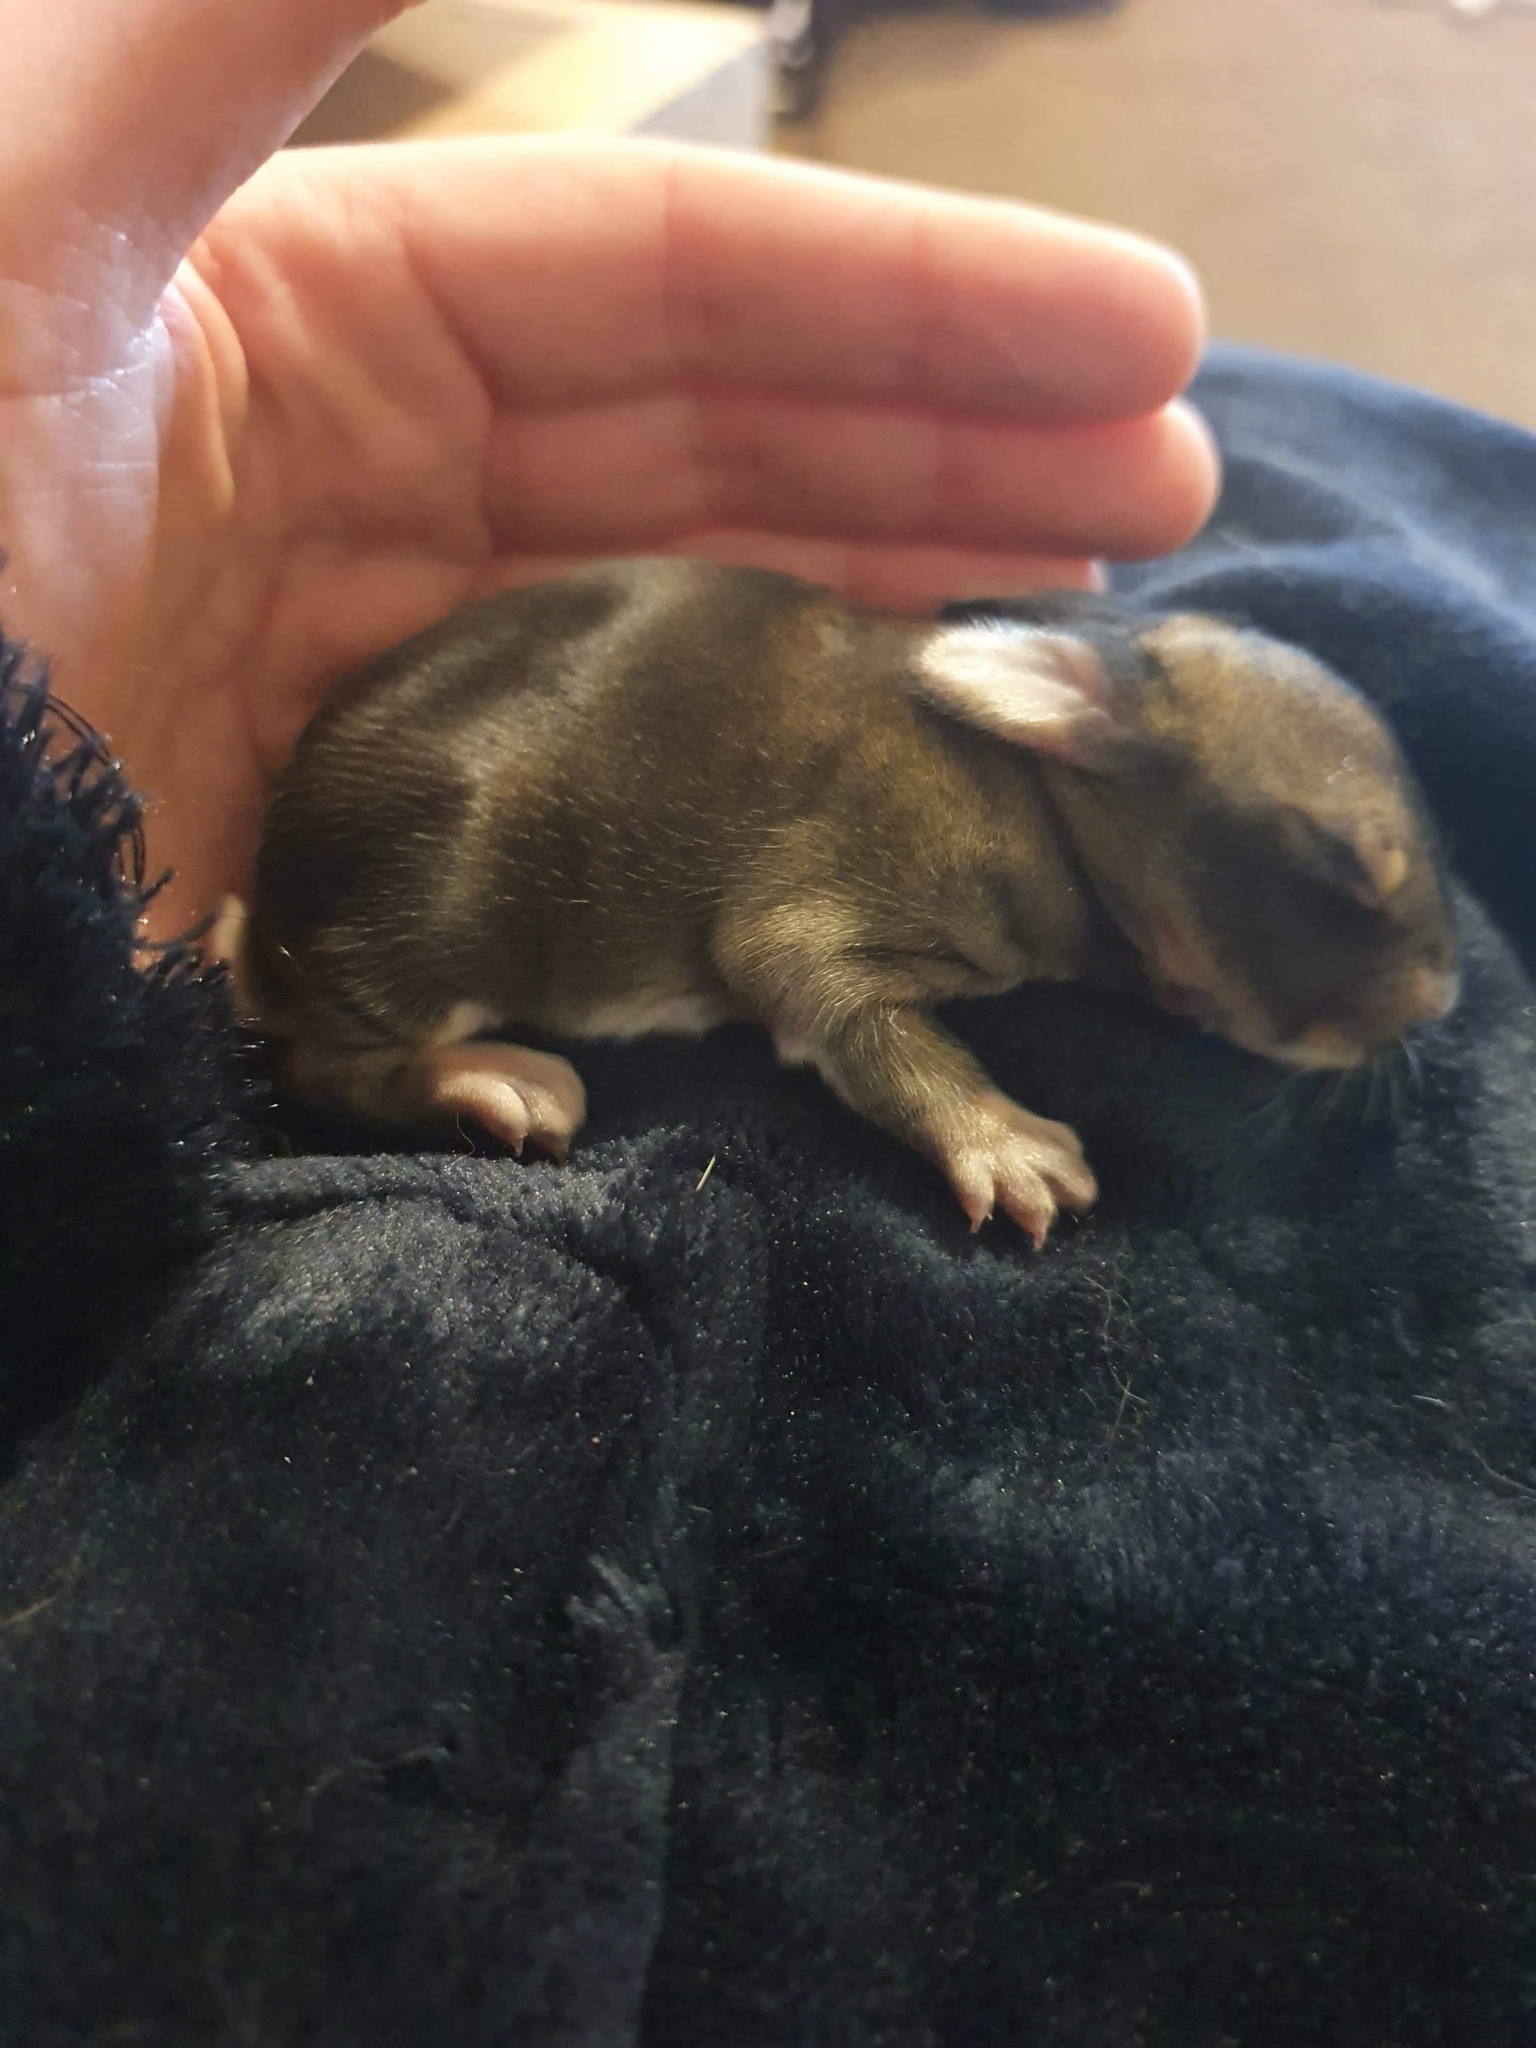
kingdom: Animalia
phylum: Chordata
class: Mammalia
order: Lagomorpha
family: Leporidae
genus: Oryctolagus
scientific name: Oryctolagus cuniculus
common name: European rabbit
